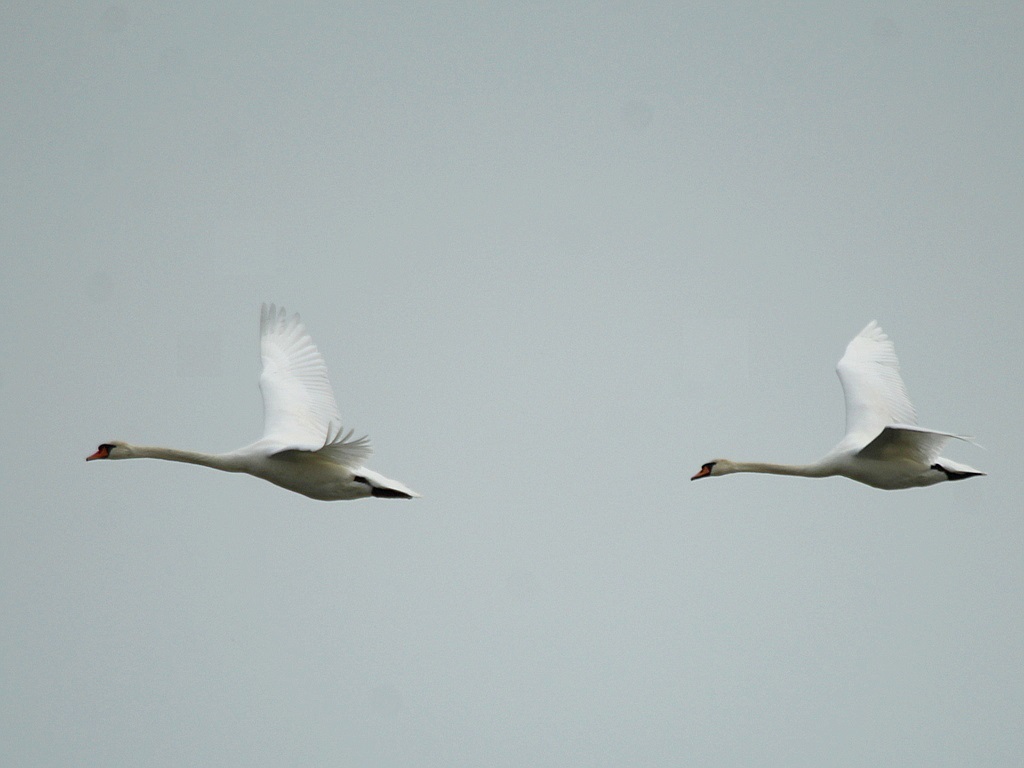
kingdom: Animalia
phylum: Chordata
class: Aves
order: Anseriformes
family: Anatidae
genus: Cygnus
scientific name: Cygnus olor
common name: Mute swan
